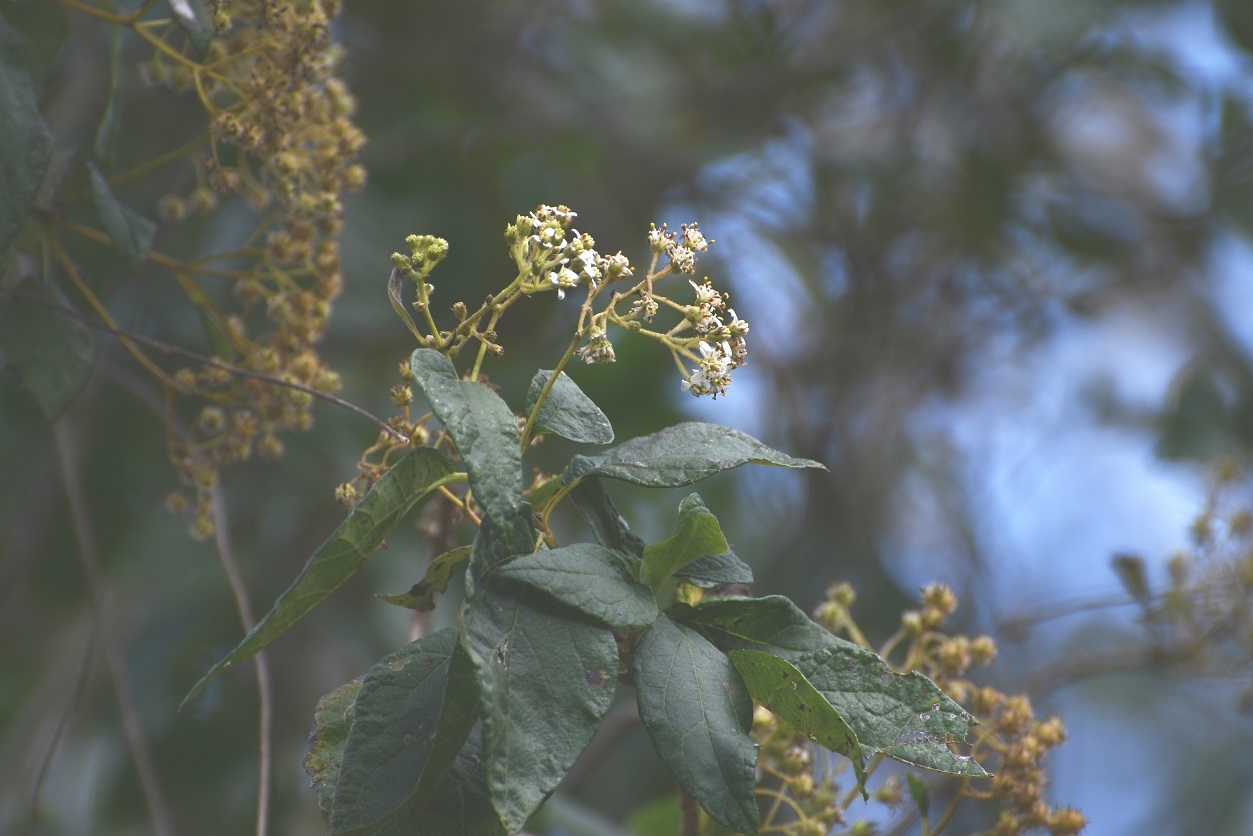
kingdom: Plantae
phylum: Tracheophyta
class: Magnoliopsida
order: Asterales
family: Asteraceae
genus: Montanoa
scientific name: Montanoa tomentosa
